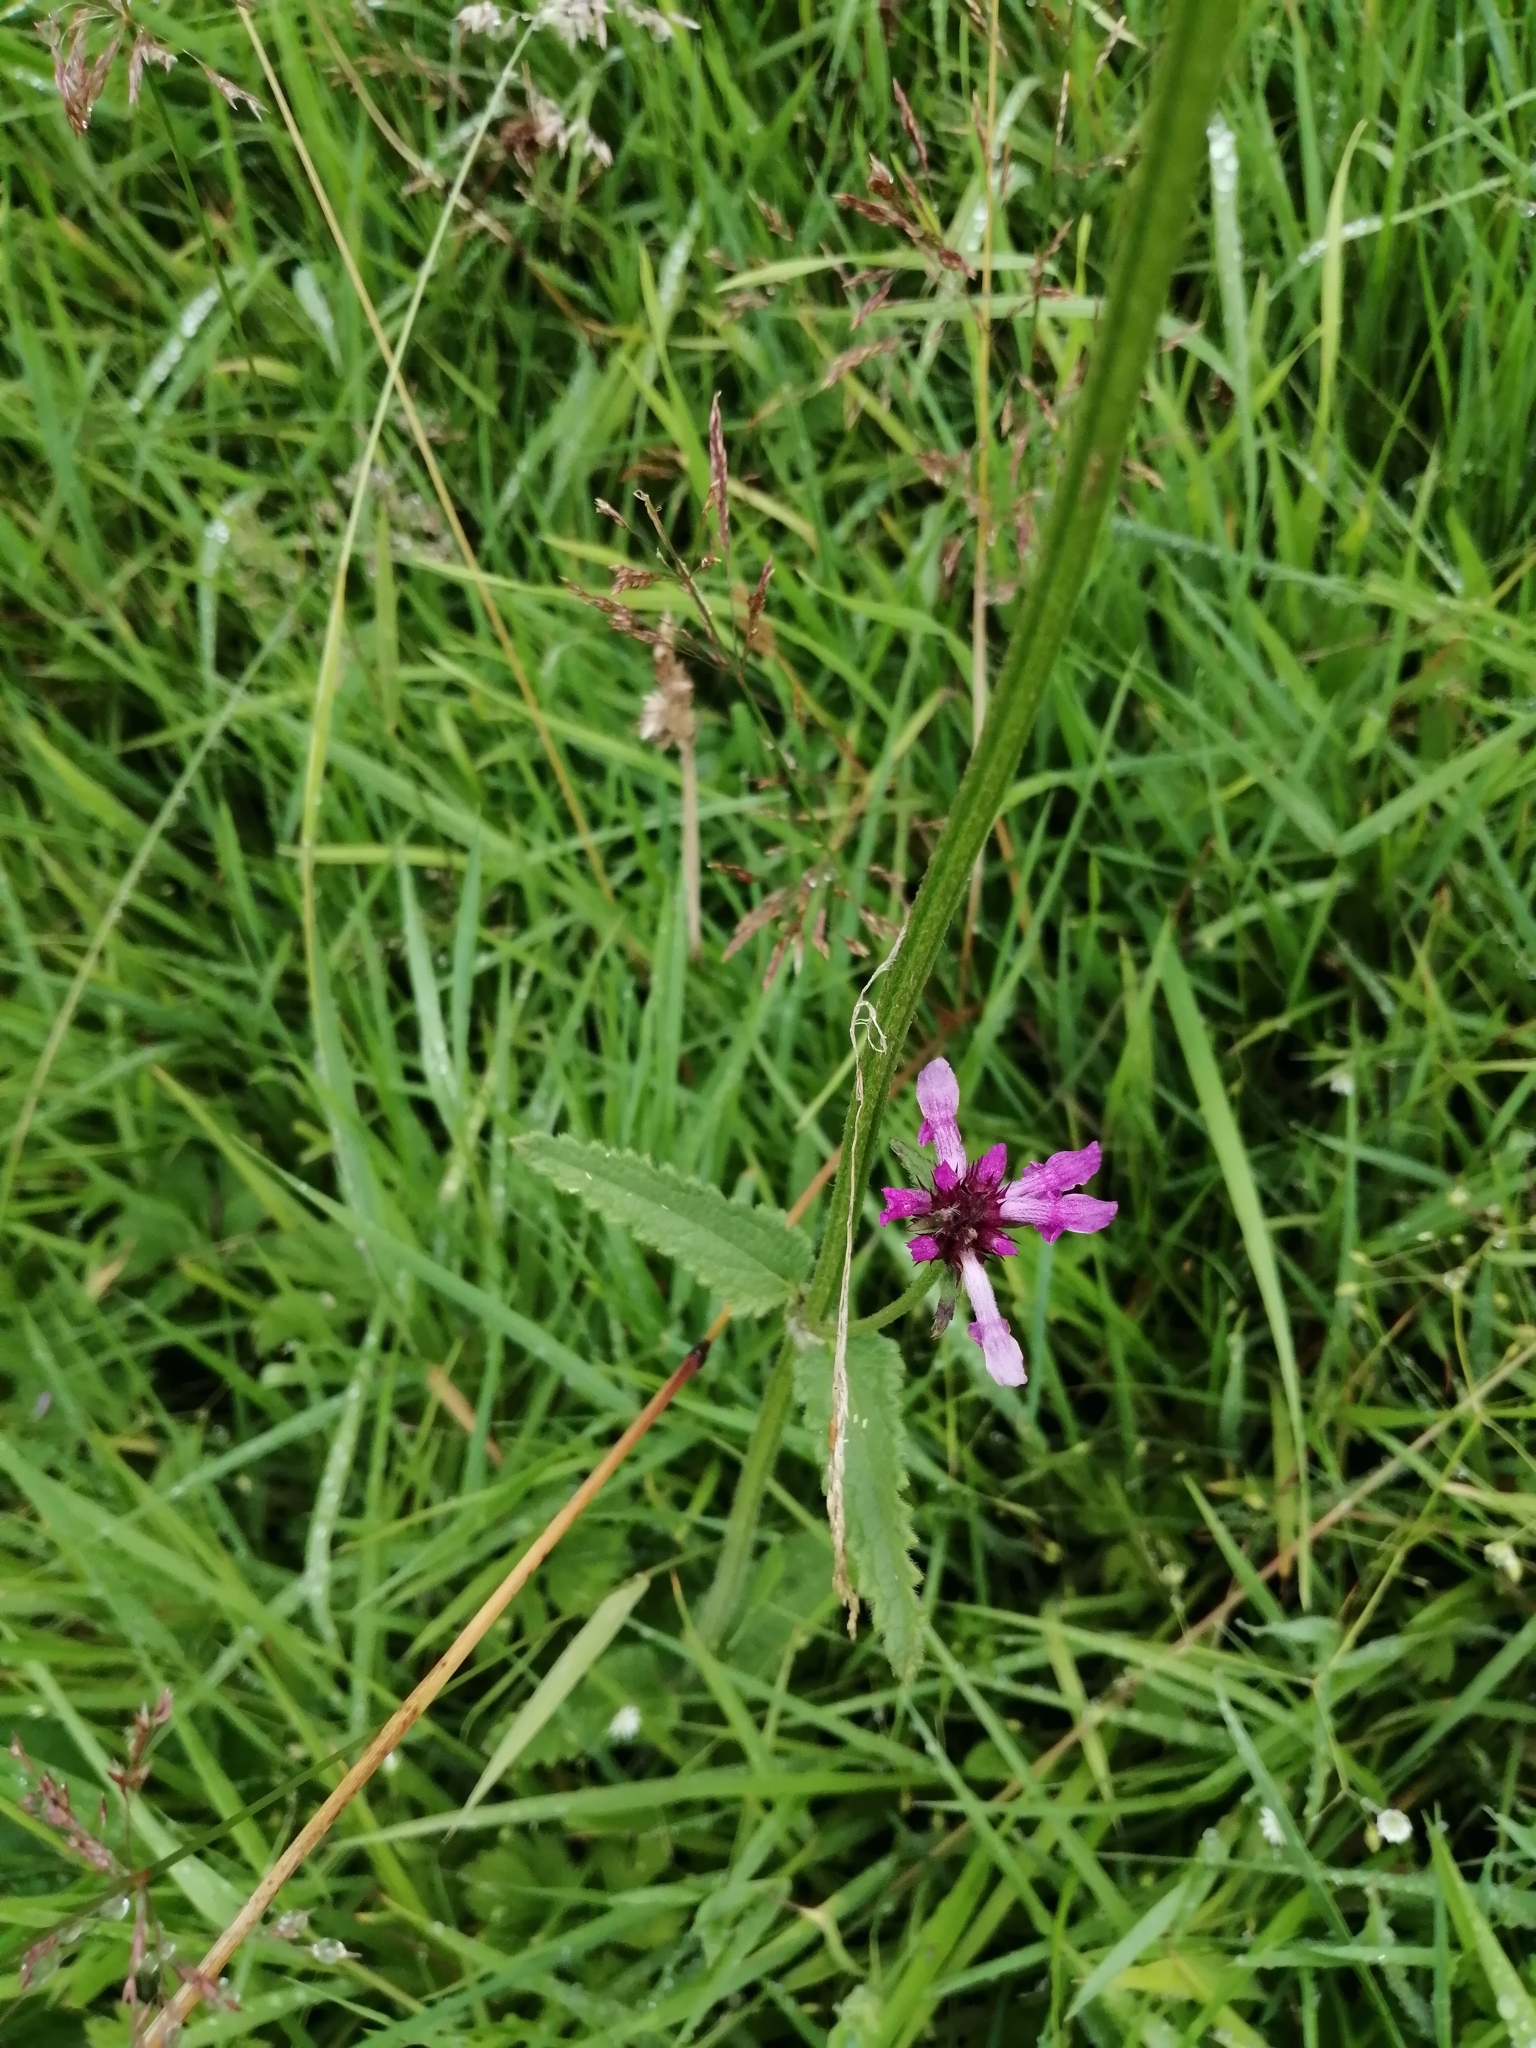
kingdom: Plantae
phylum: Tracheophyta
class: Magnoliopsida
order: Lamiales
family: Lamiaceae
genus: Betonica
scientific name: Betonica officinalis
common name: Bishop's-wort
